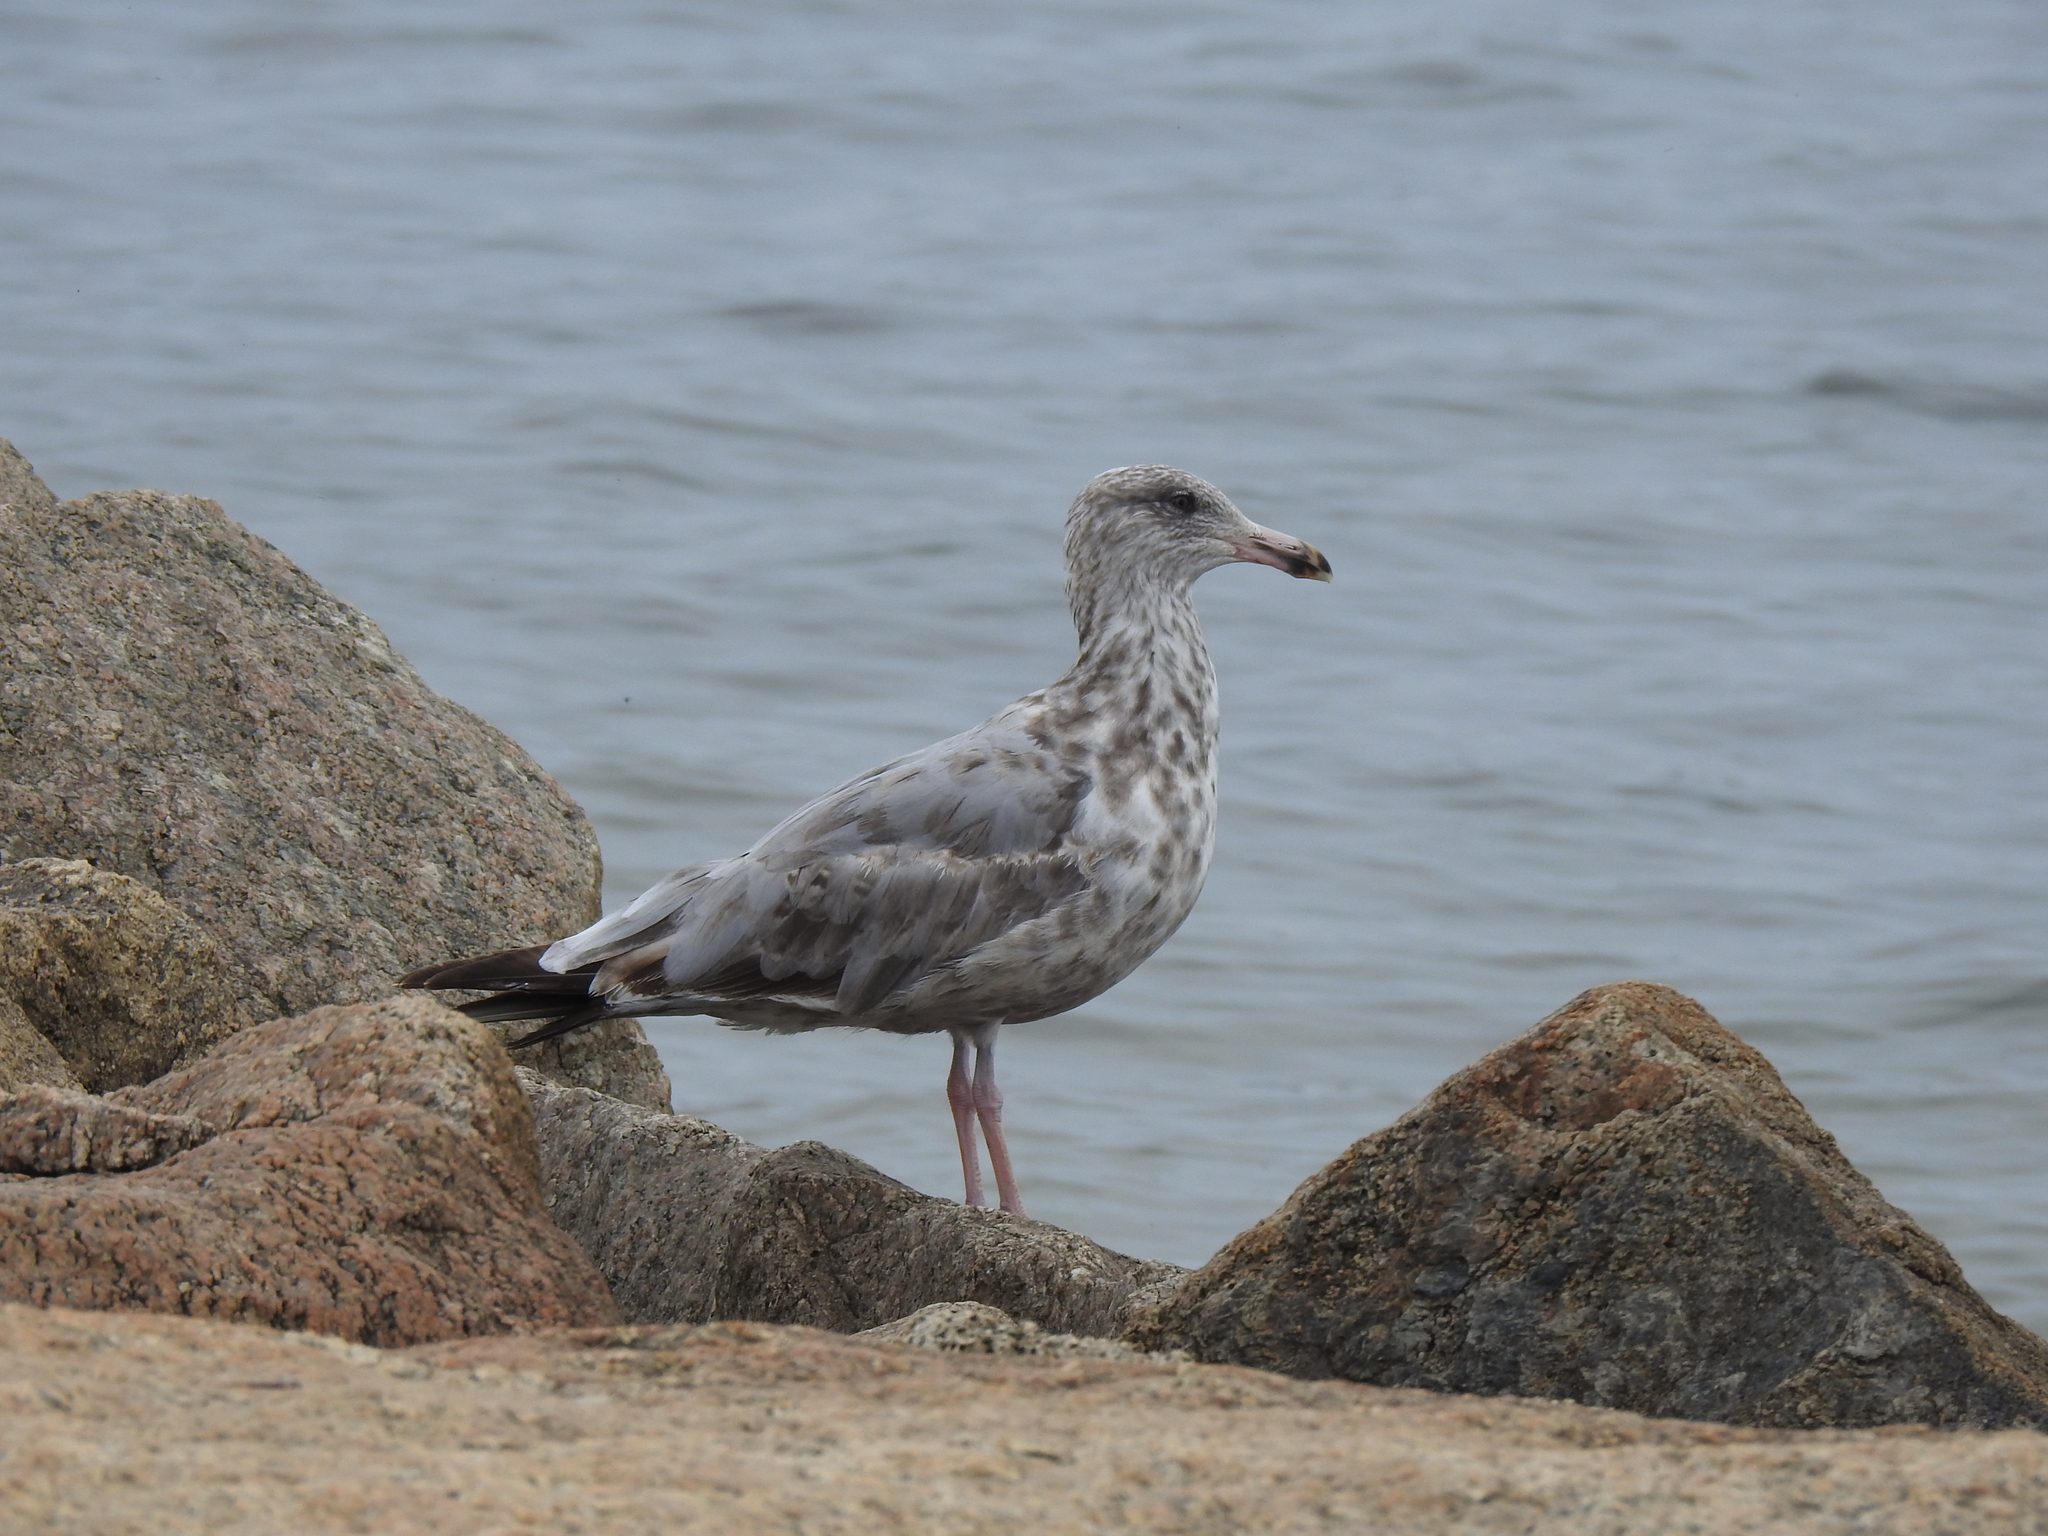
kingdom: Animalia
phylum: Chordata
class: Aves
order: Charadriiformes
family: Laridae
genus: Larus
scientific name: Larus argentatus
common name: Herring gull
